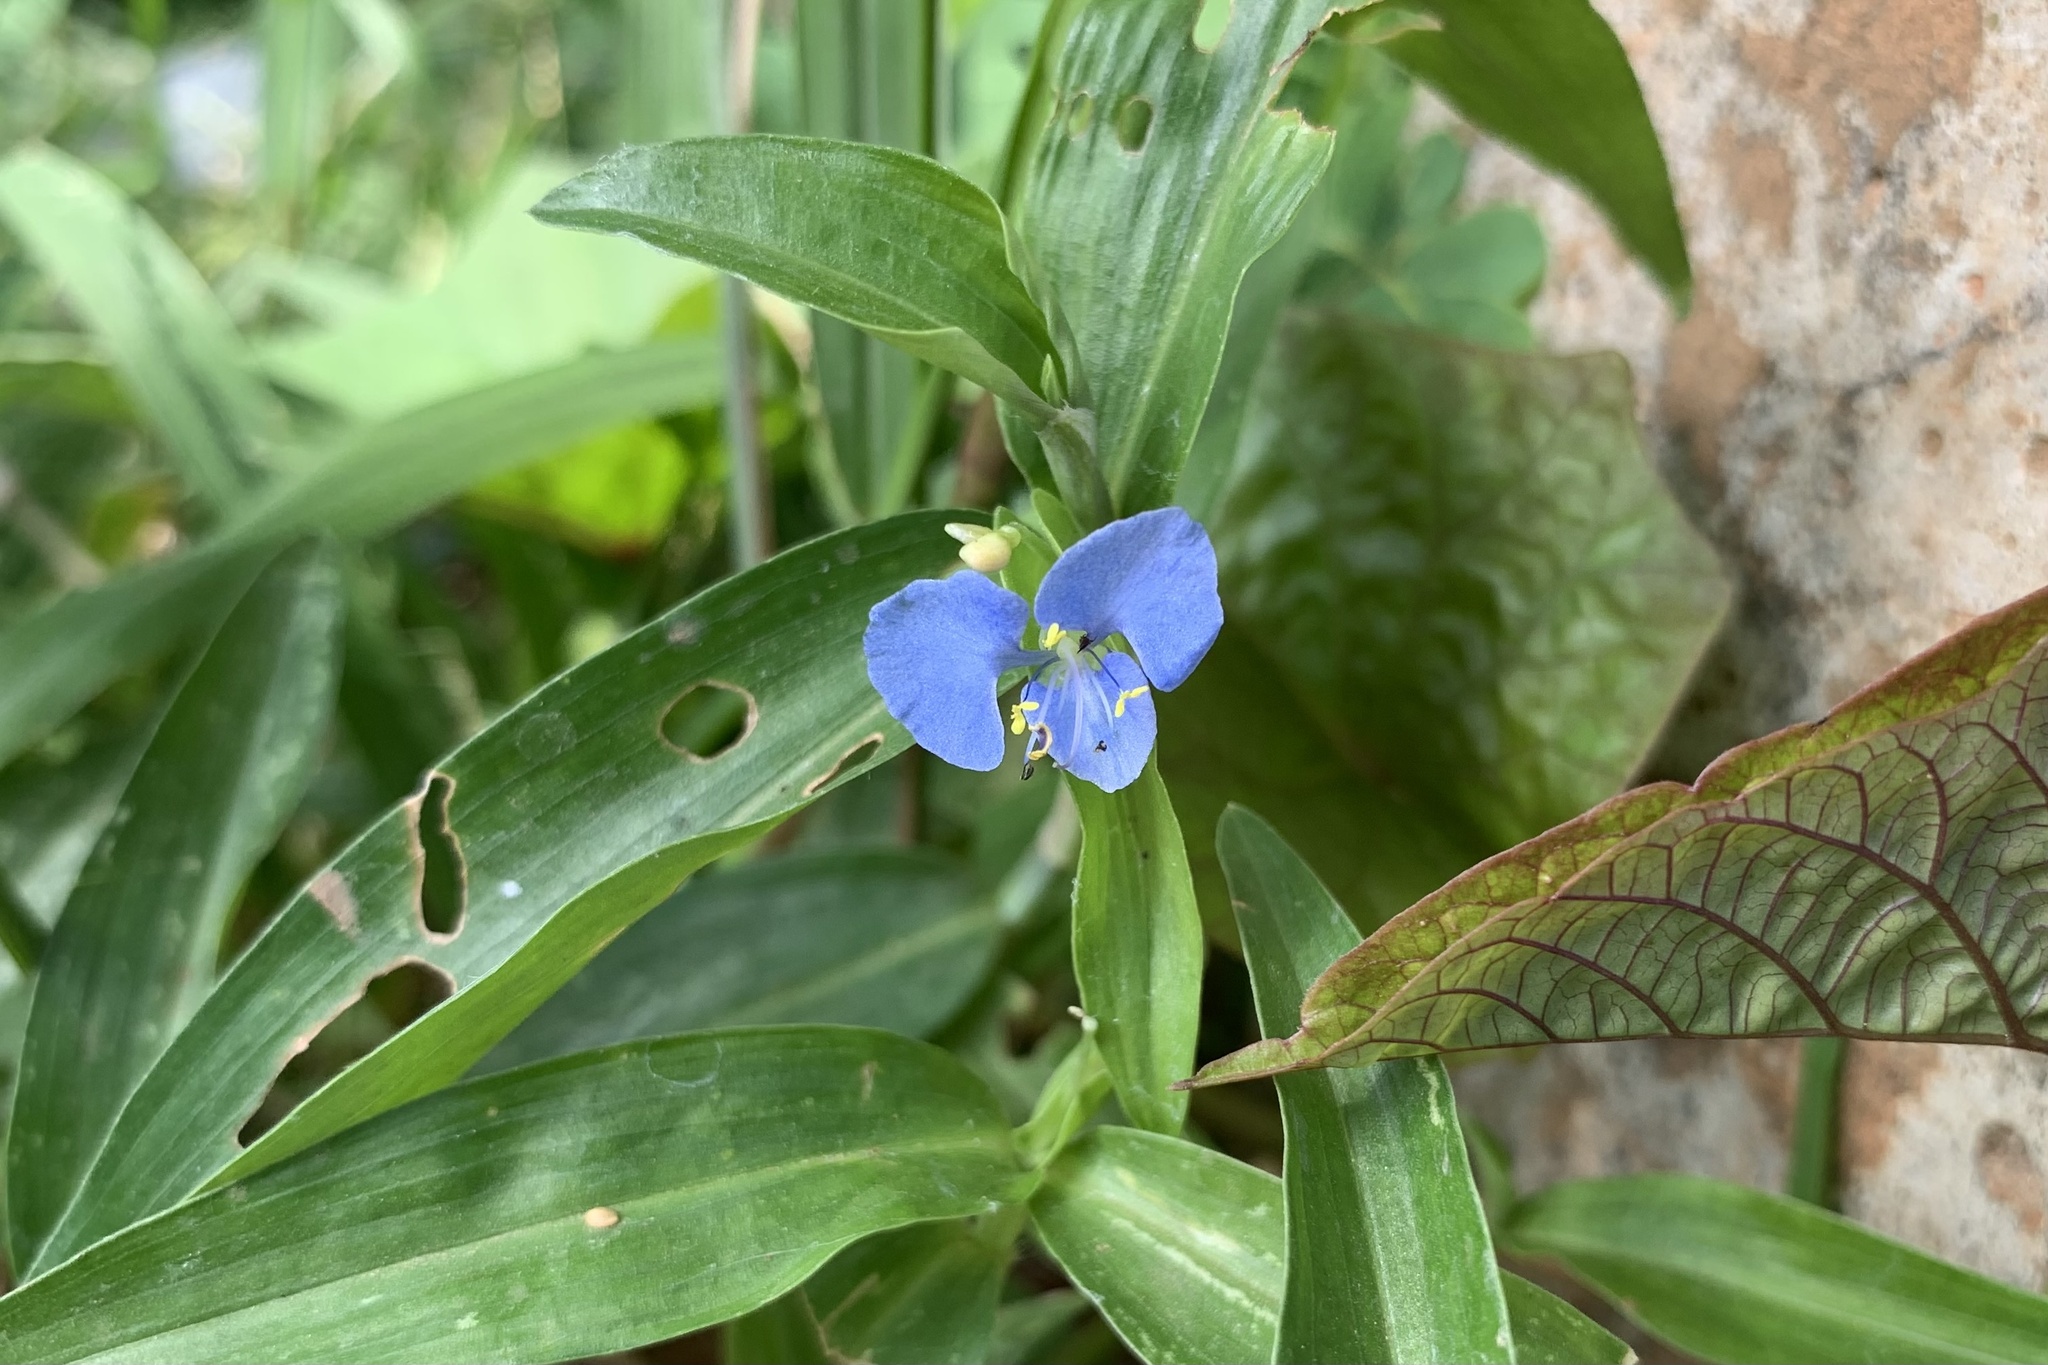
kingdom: Plantae
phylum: Tracheophyta
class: Liliopsida
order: Commelinales
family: Commelinaceae
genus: Commelina
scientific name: Commelina diffusa
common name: Climbing dayflower
